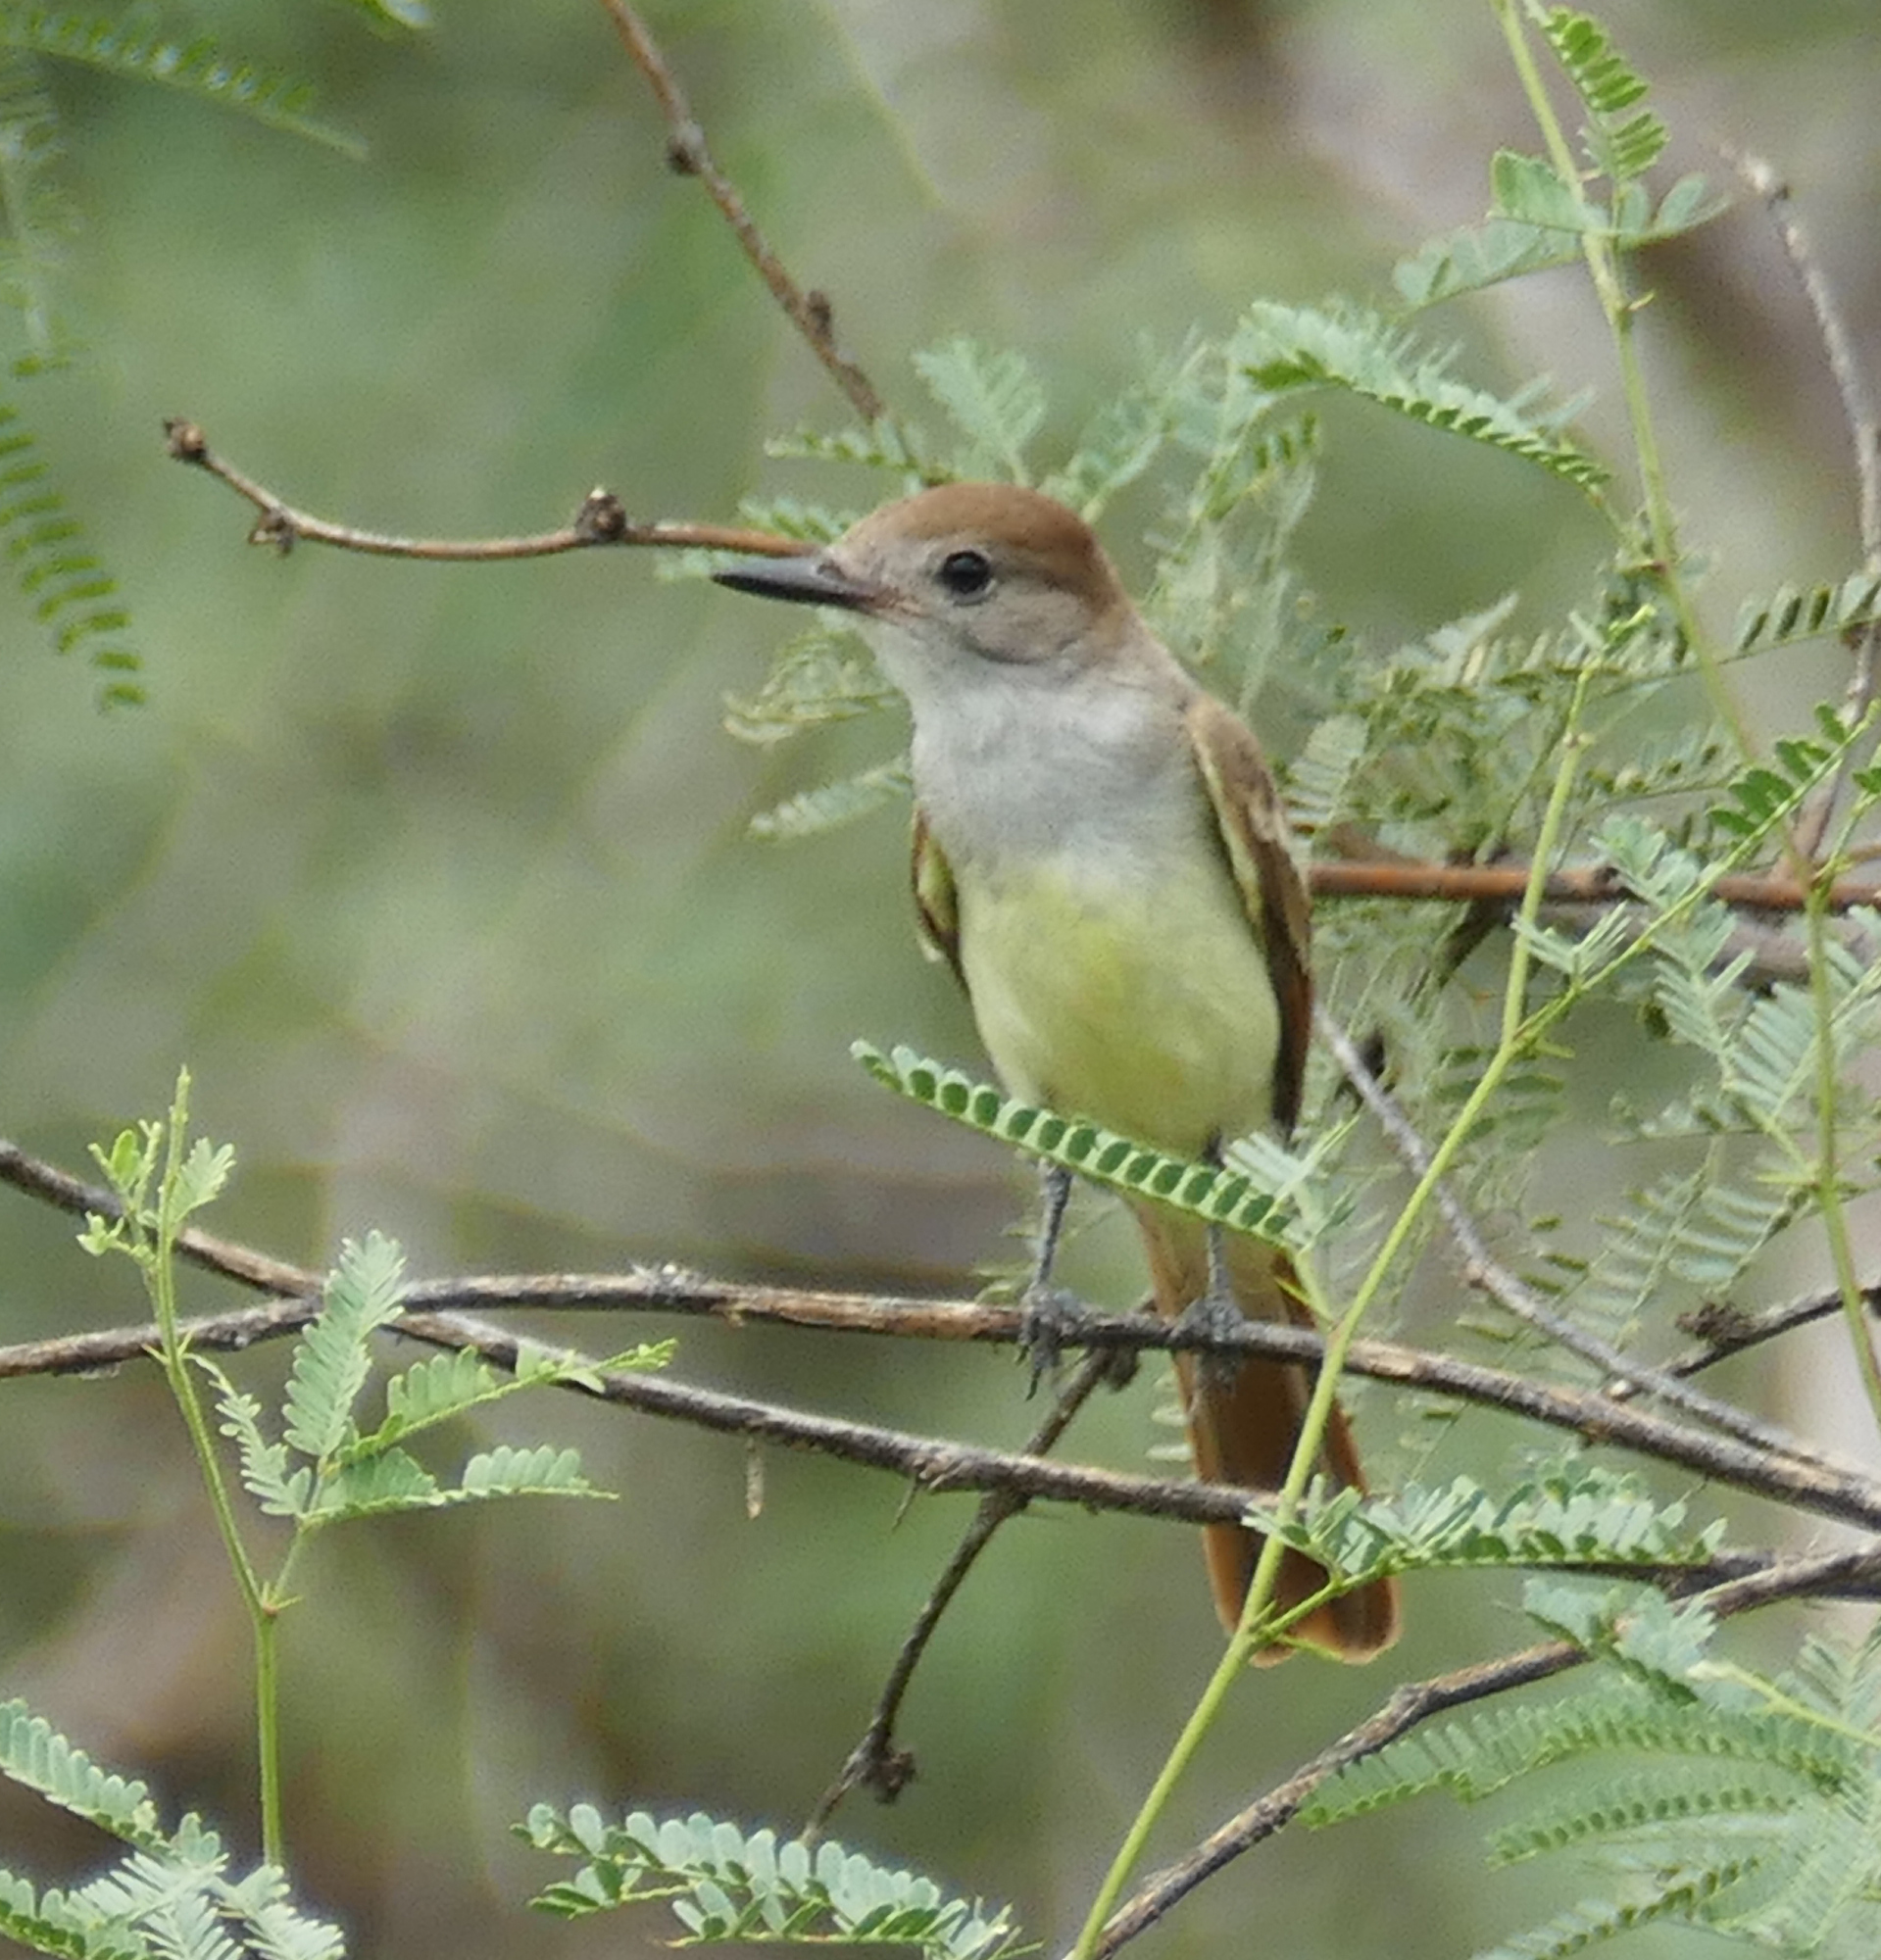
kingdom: Animalia
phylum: Chordata
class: Aves
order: Passeriformes
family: Tyrannidae
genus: Myiarchus
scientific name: Myiarchus tyrannulus
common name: Brown-crested flycatcher
